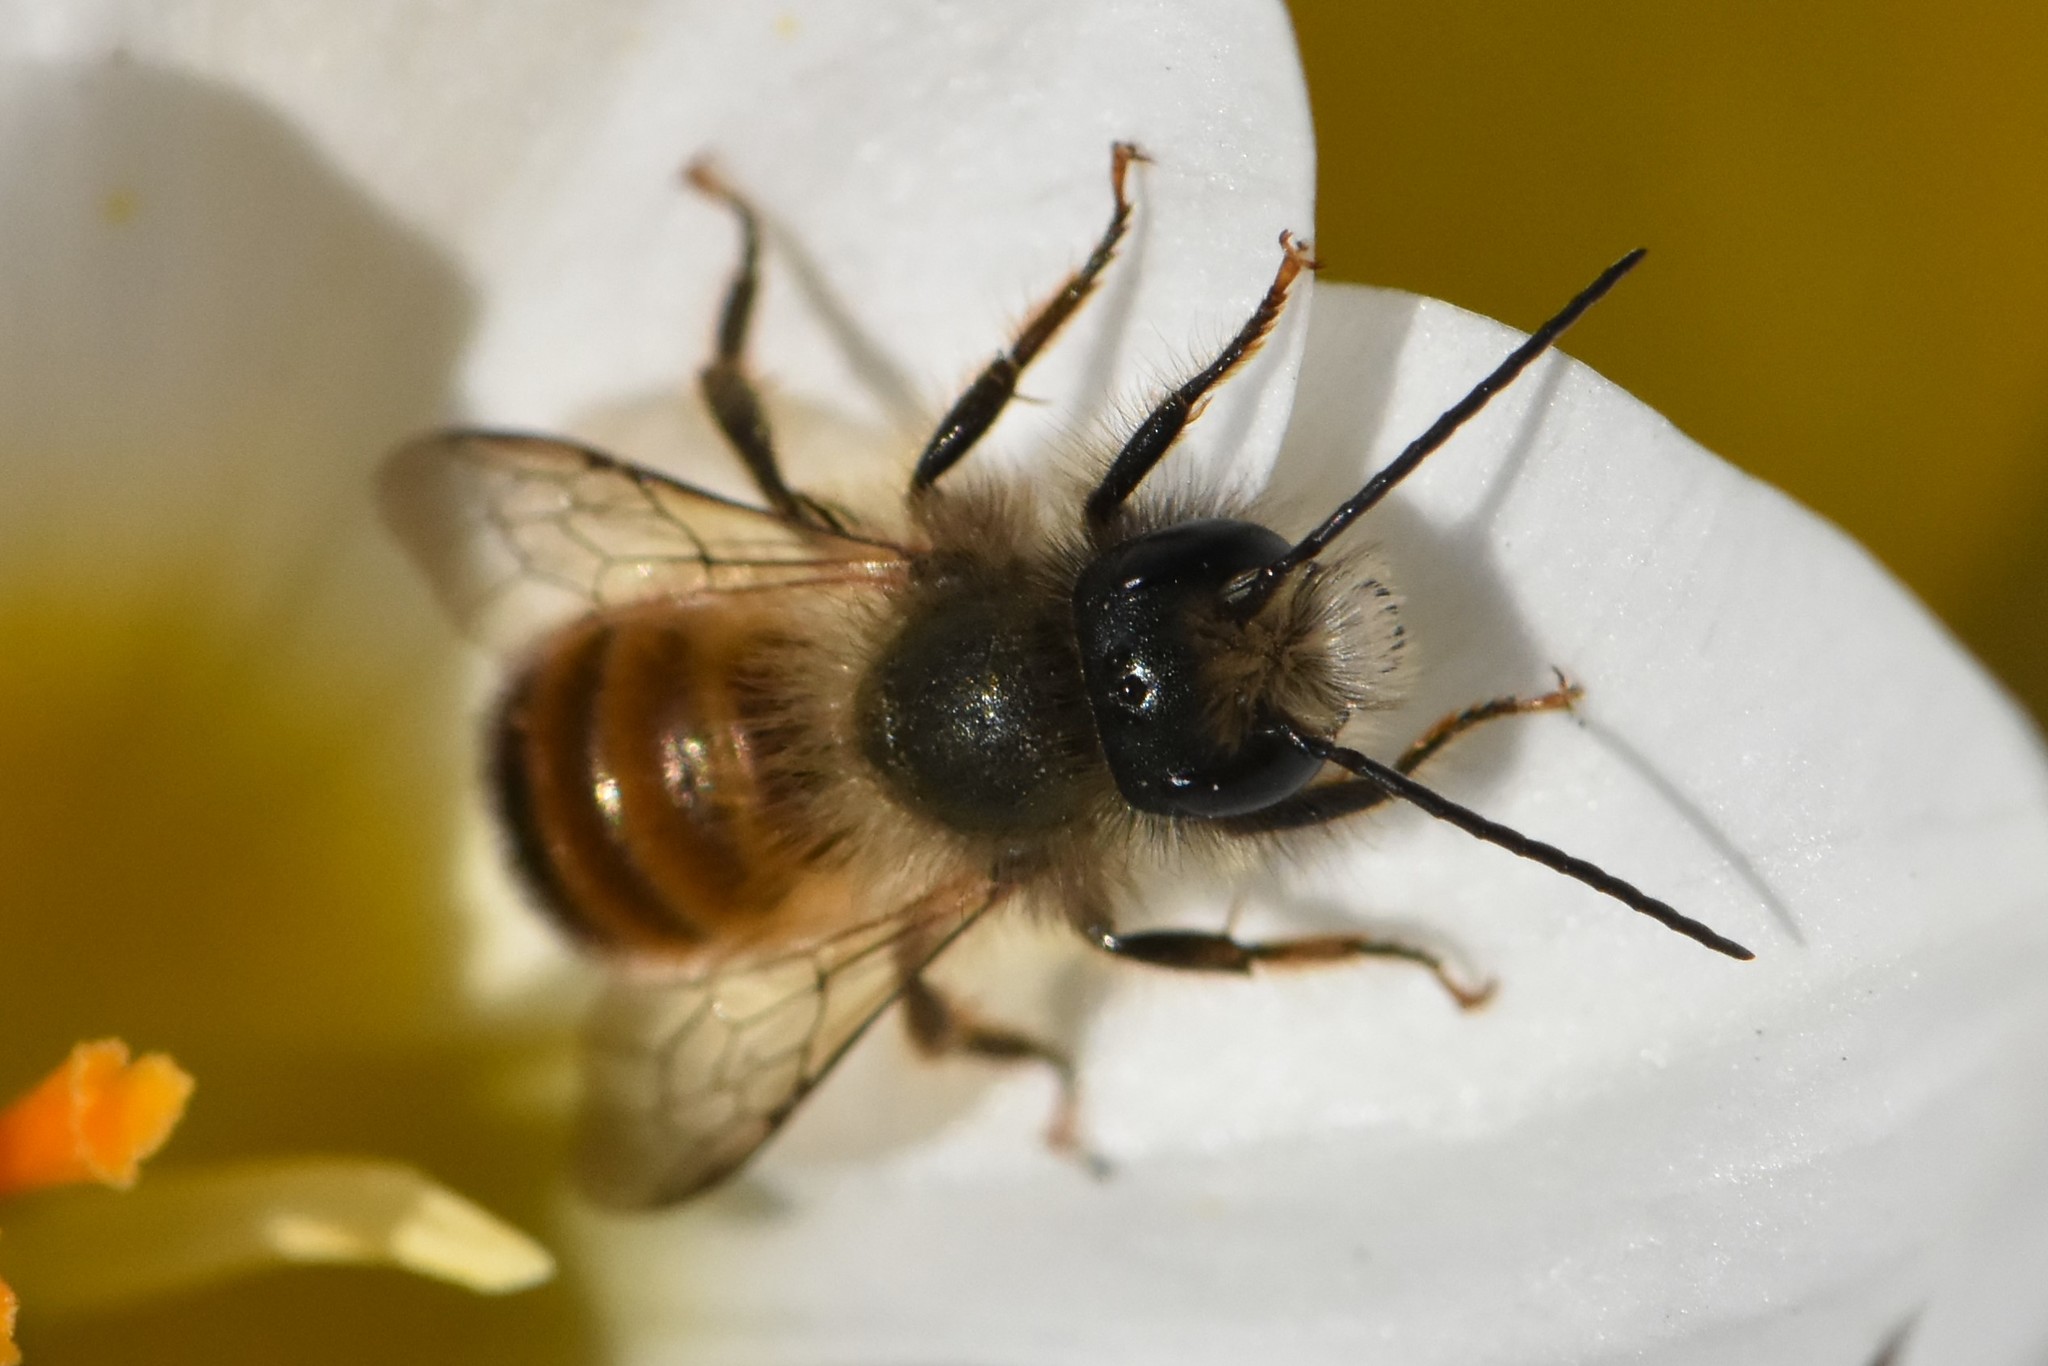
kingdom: Animalia
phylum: Arthropoda
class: Insecta
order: Hymenoptera
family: Megachilidae
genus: Osmia
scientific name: Osmia bicornis
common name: Red mason bee
